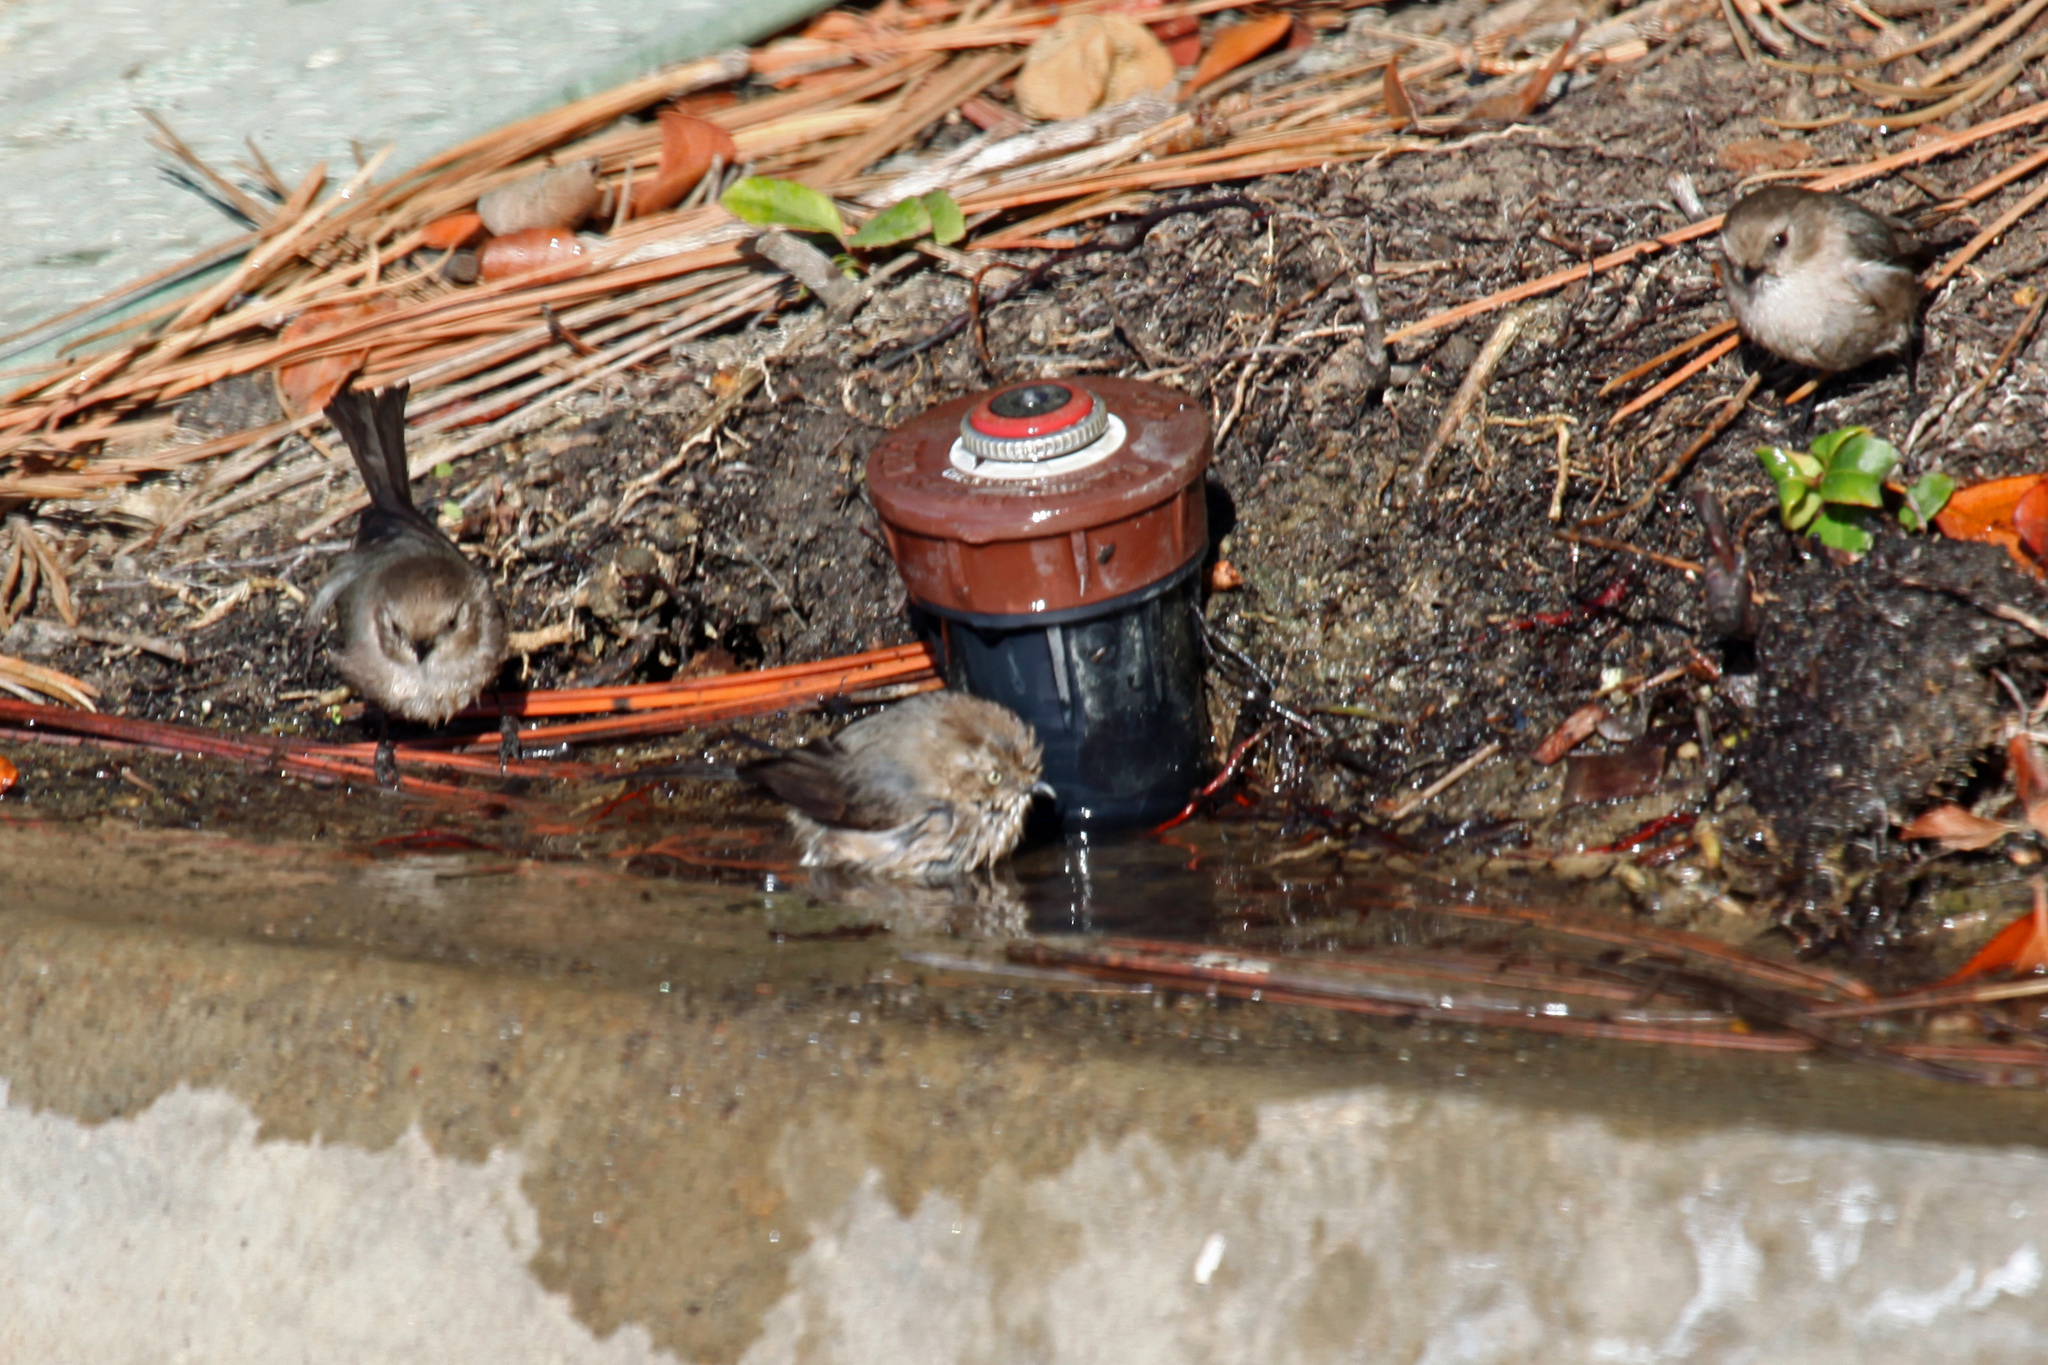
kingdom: Animalia
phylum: Chordata
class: Aves
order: Passeriformes
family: Aegithalidae
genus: Psaltriparus
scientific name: Psaltriparus minimus
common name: American bushtit
